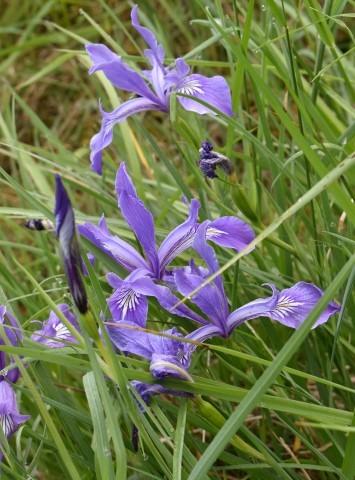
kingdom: Plantae
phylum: Tracheophyta
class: Liliopsida
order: Asparagales
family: Iridaceae
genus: Iris
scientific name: Iris tenax
